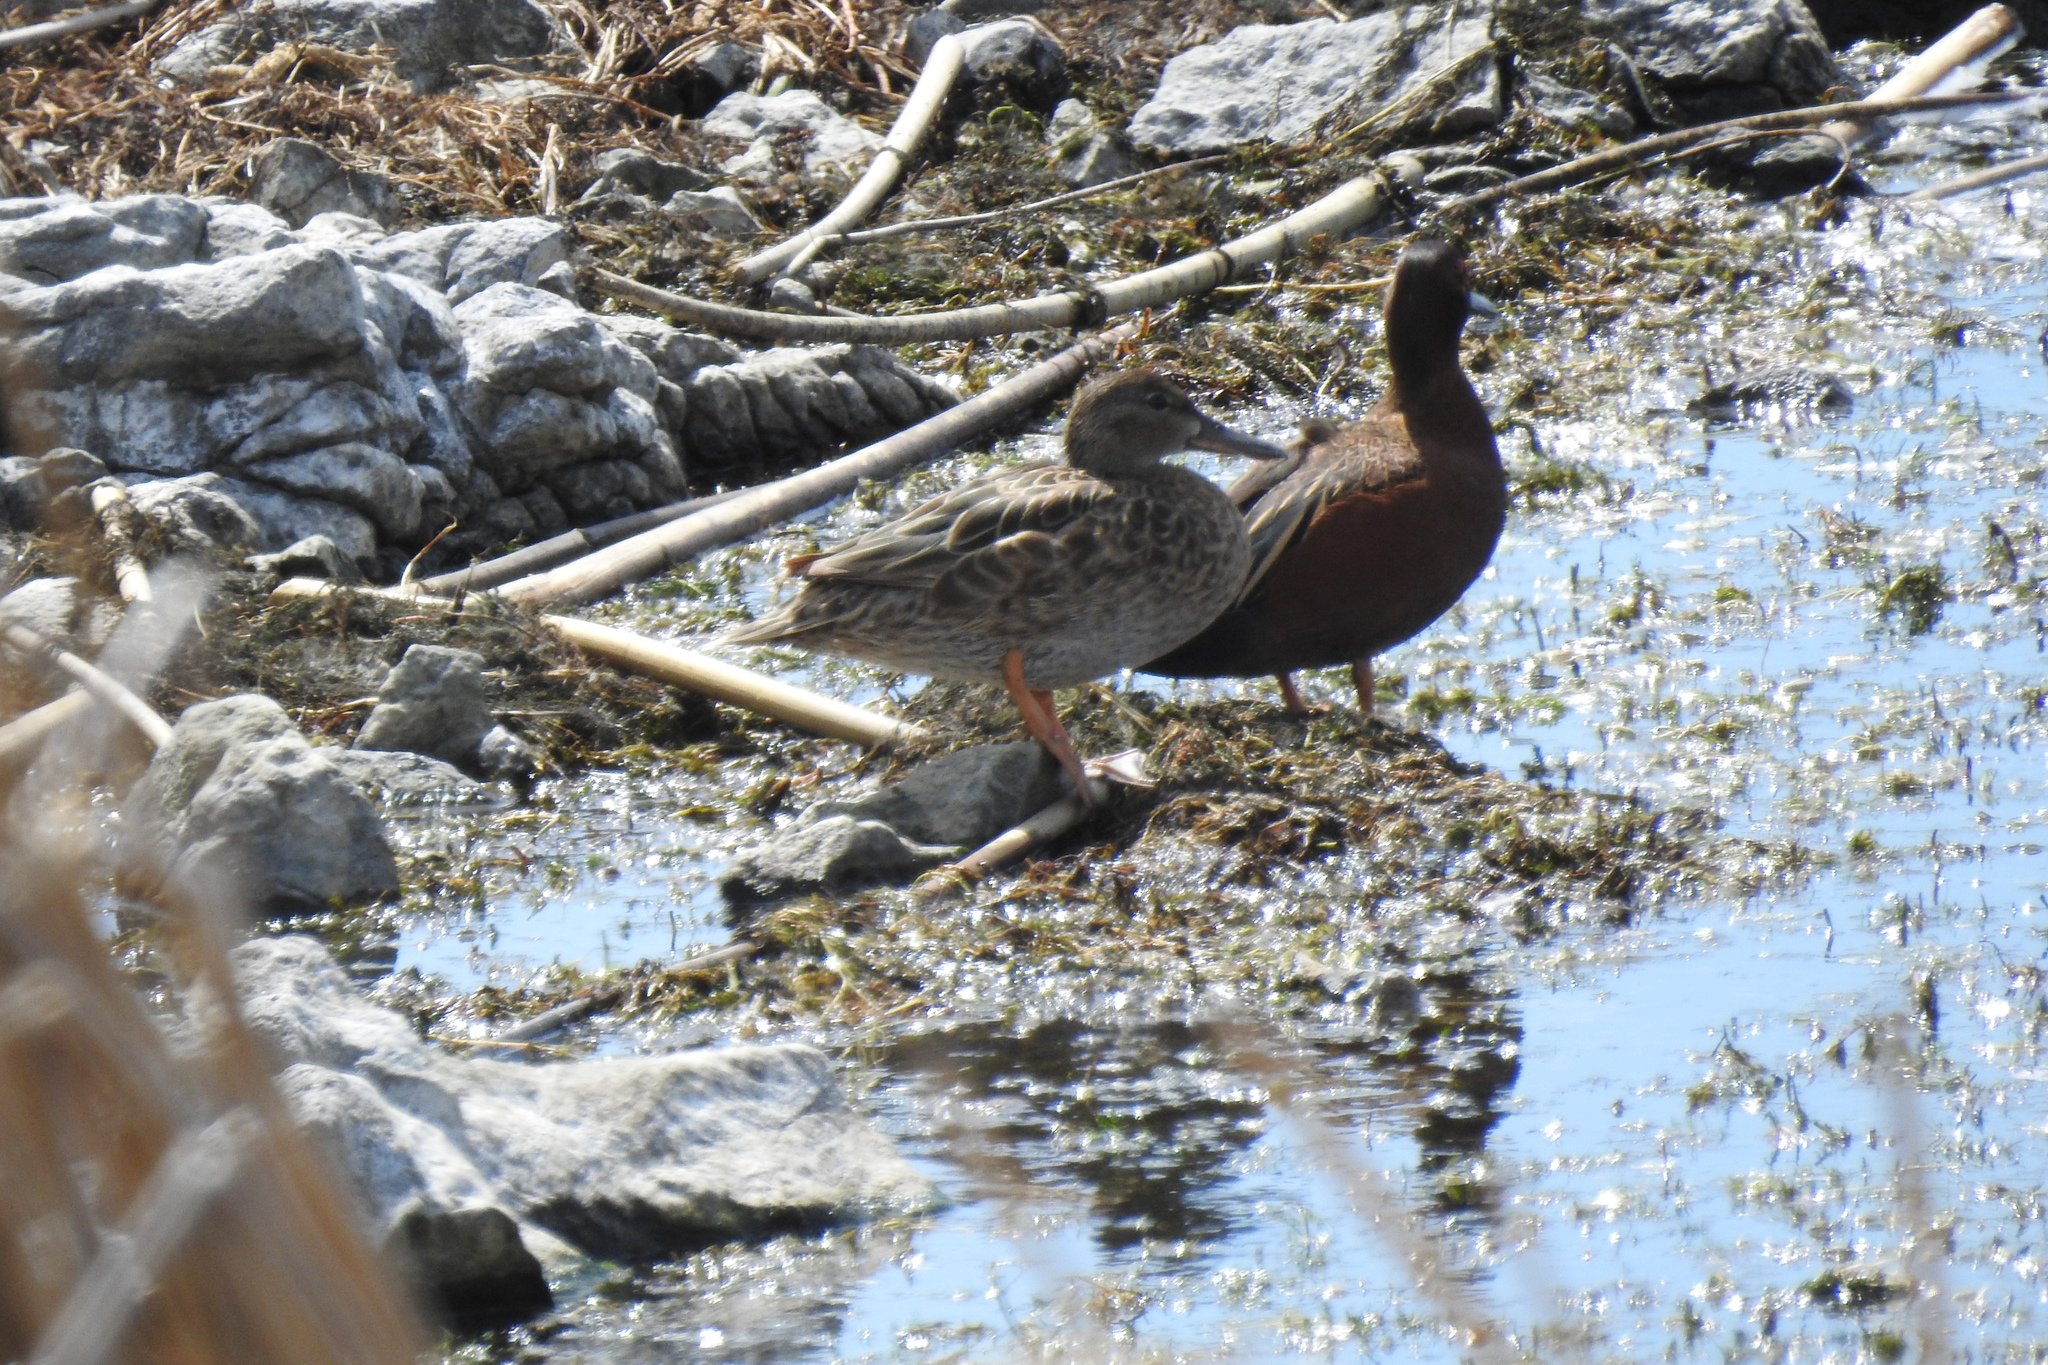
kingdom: Animalia
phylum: Chordata
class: Aves
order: Anseriformes
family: Anatidae
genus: Spatula
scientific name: Spatula cyanoptera
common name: Cinnamon teal
